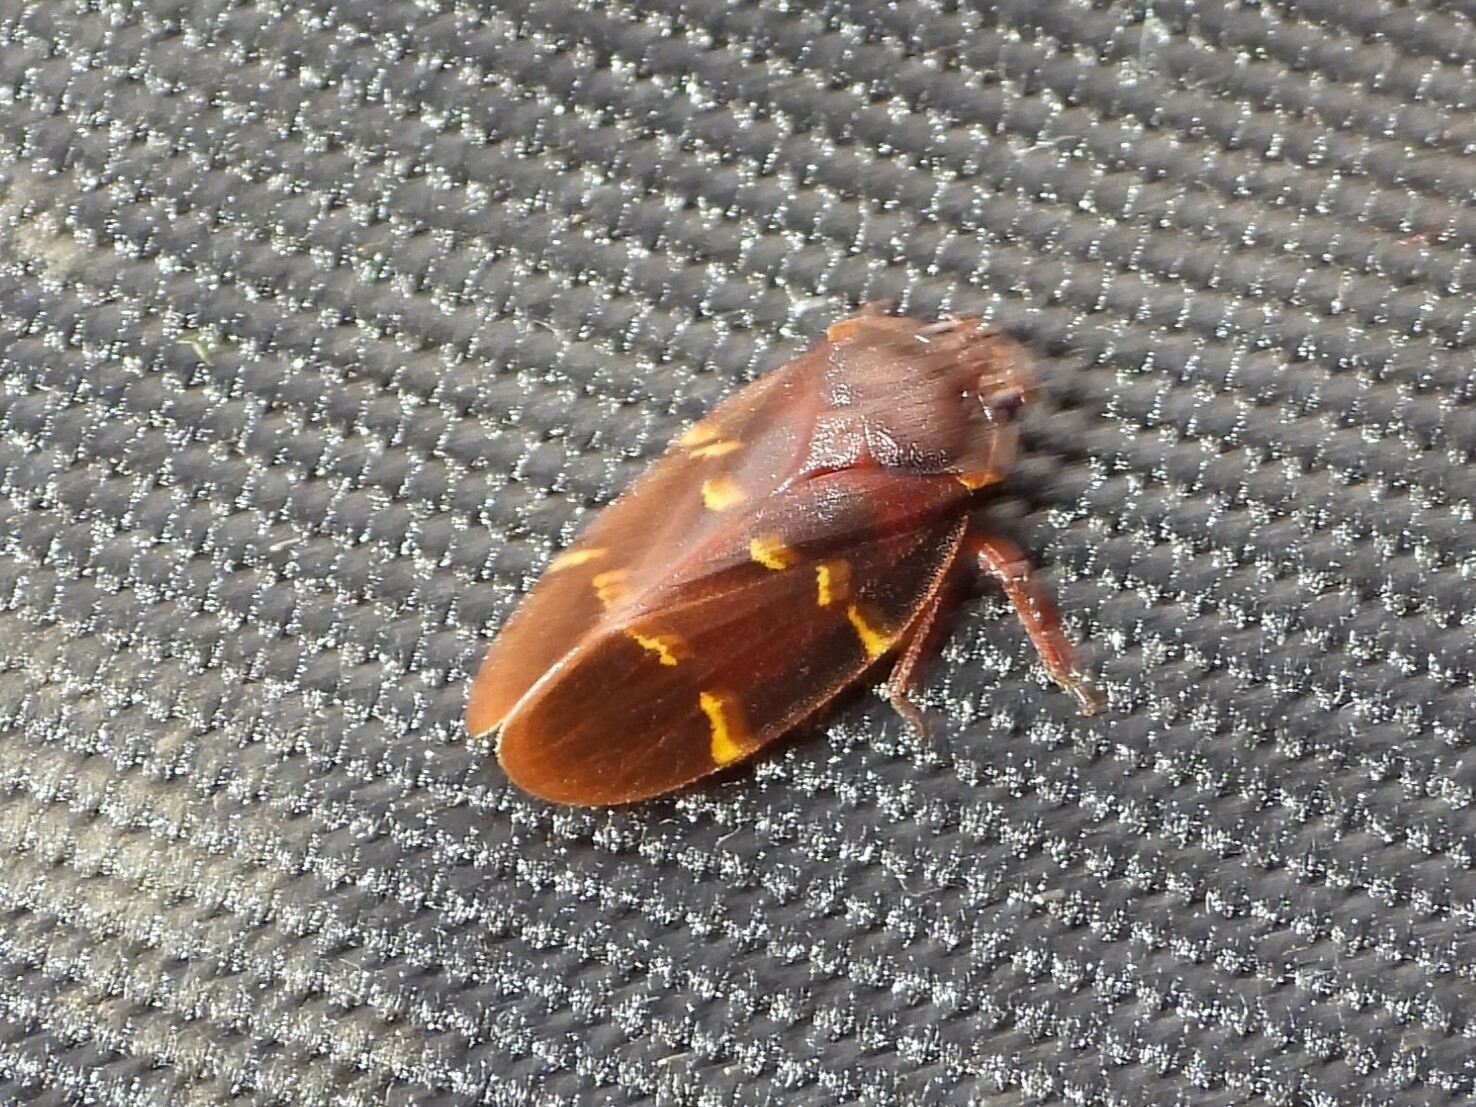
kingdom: Animalia
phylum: Arthropoda
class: Insecta
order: Hemiptera
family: Cercopidae
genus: Vorago
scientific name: Vorago boxi
